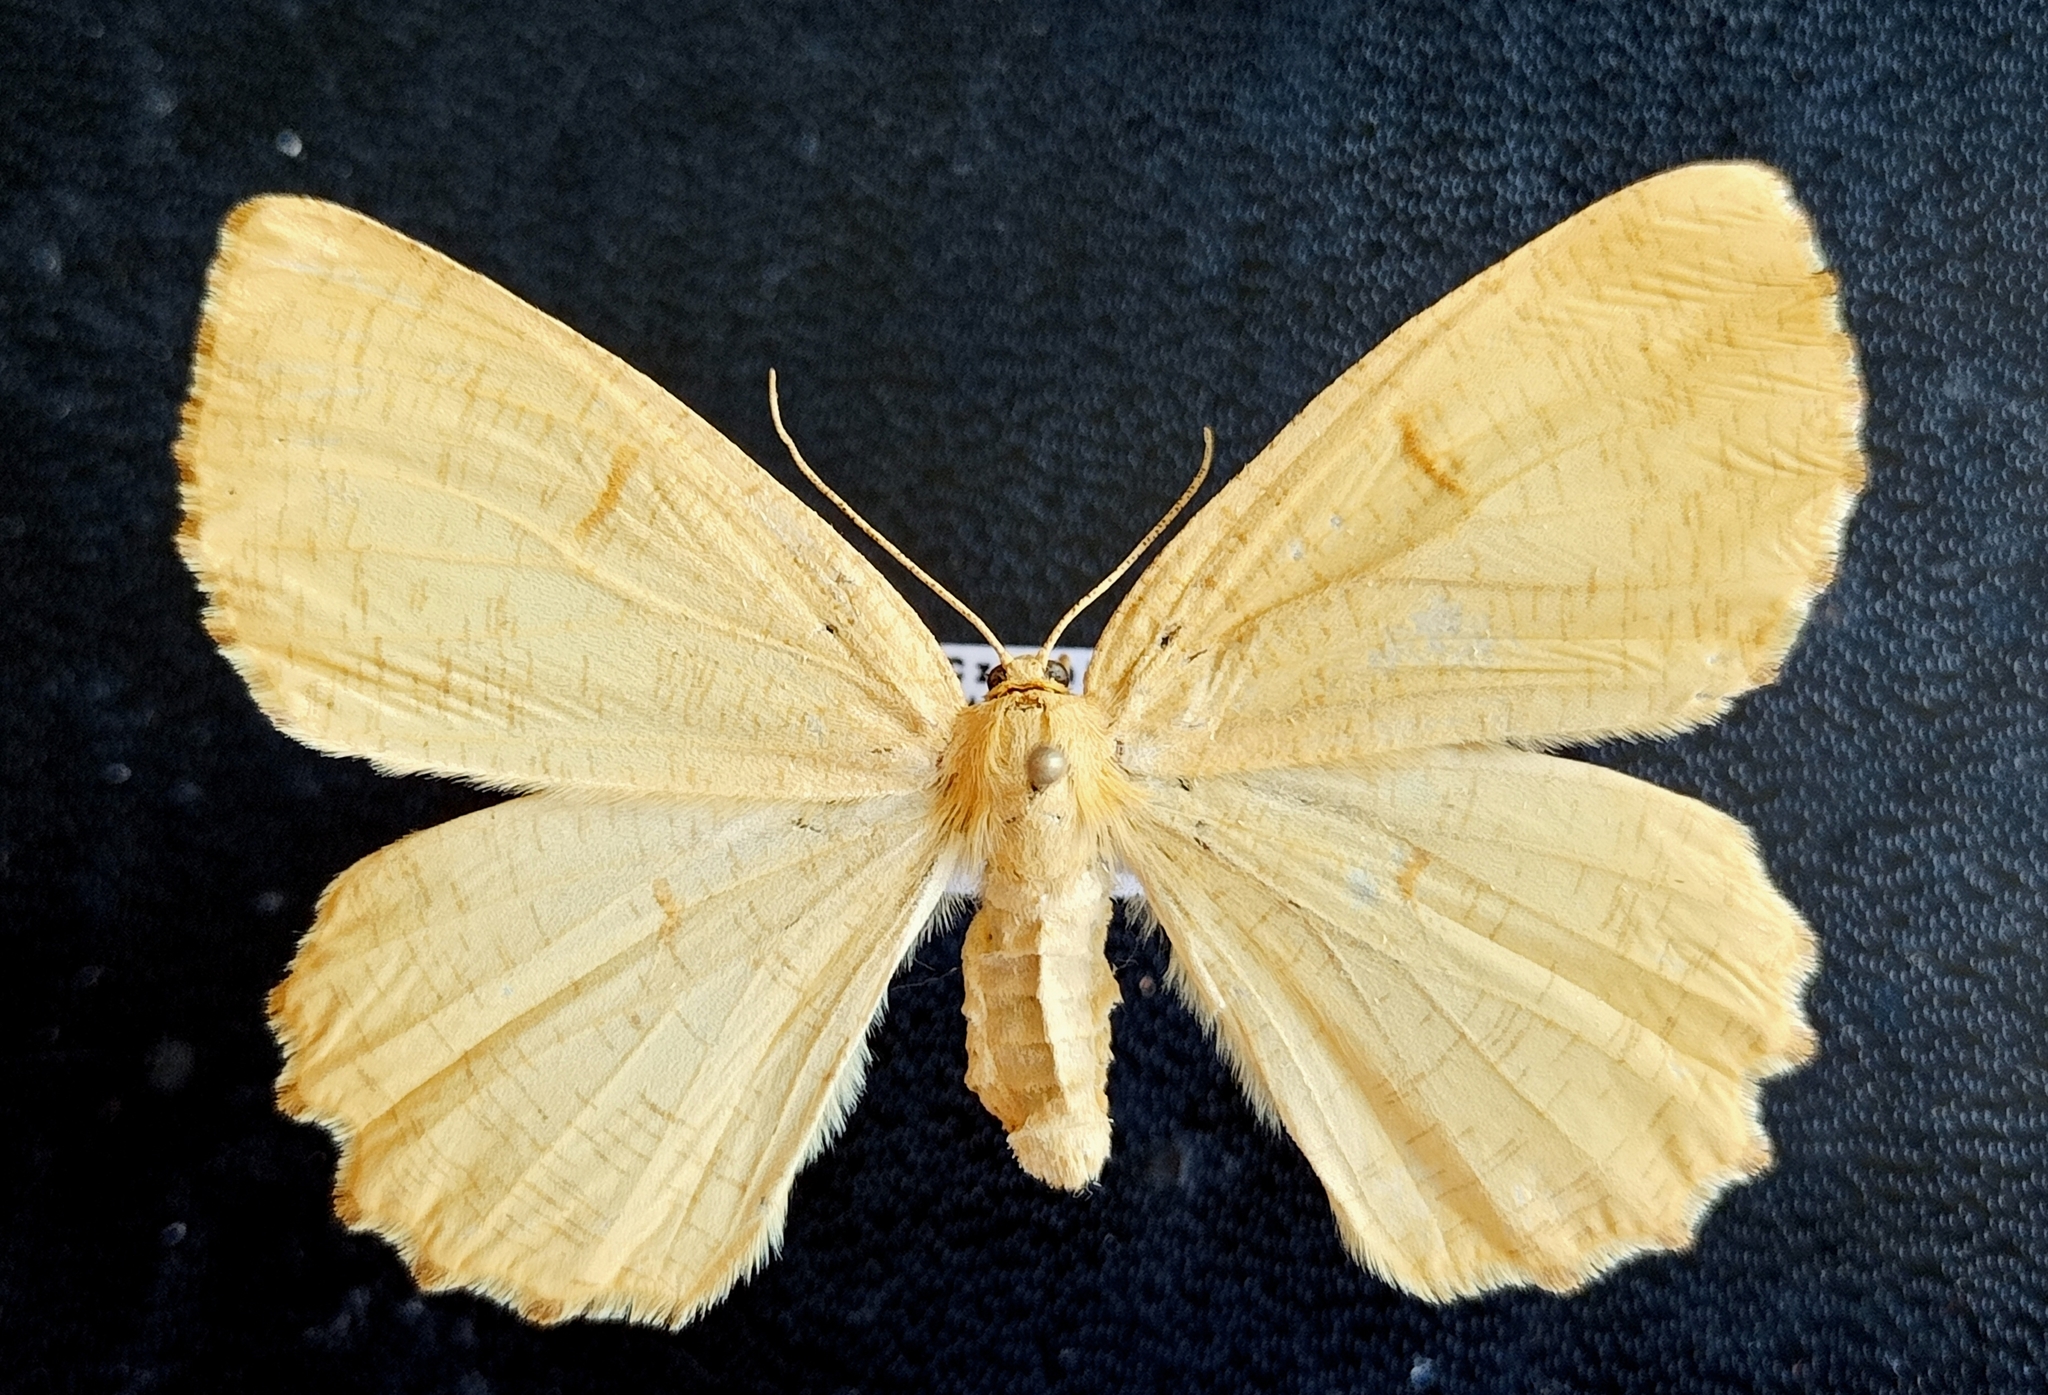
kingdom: Animalia
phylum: Arthropoda
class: Insecta
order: Lepidoptera
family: Geometridae
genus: Angerona
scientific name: Angerona prunaria
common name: Orange moth
